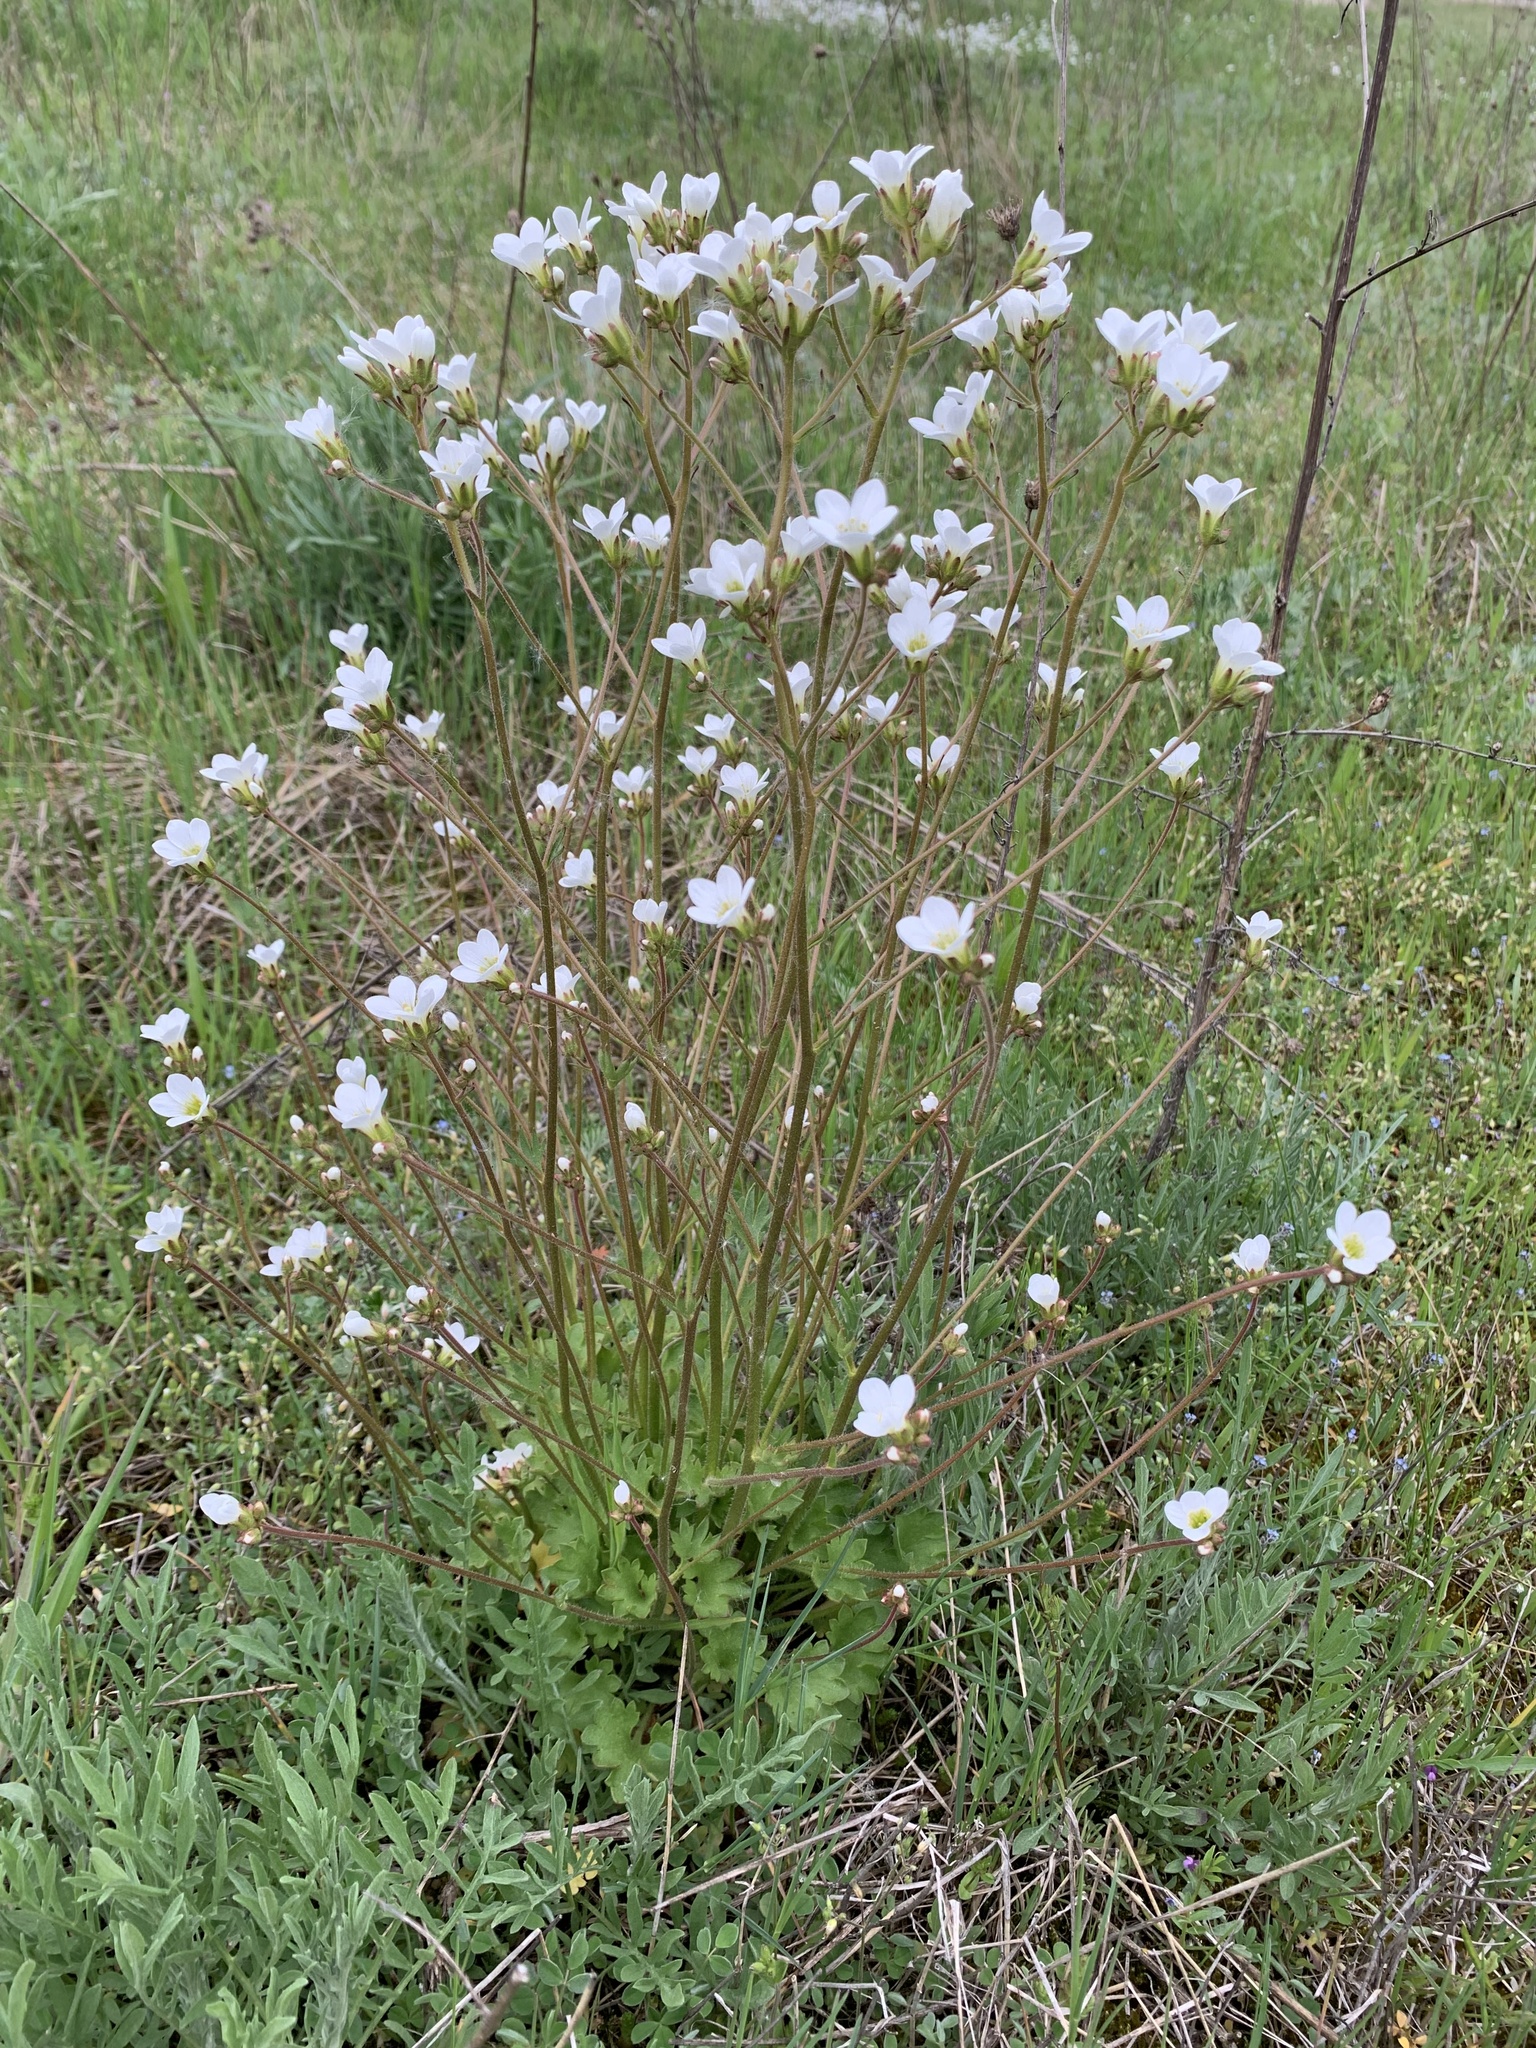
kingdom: Plantae
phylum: Tracheophyta
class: Magnoliopsida
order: Saxifragales
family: Saxifragaceae
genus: Saxifraga
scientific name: Saxifraga granulata
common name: Meadow saxifrage
